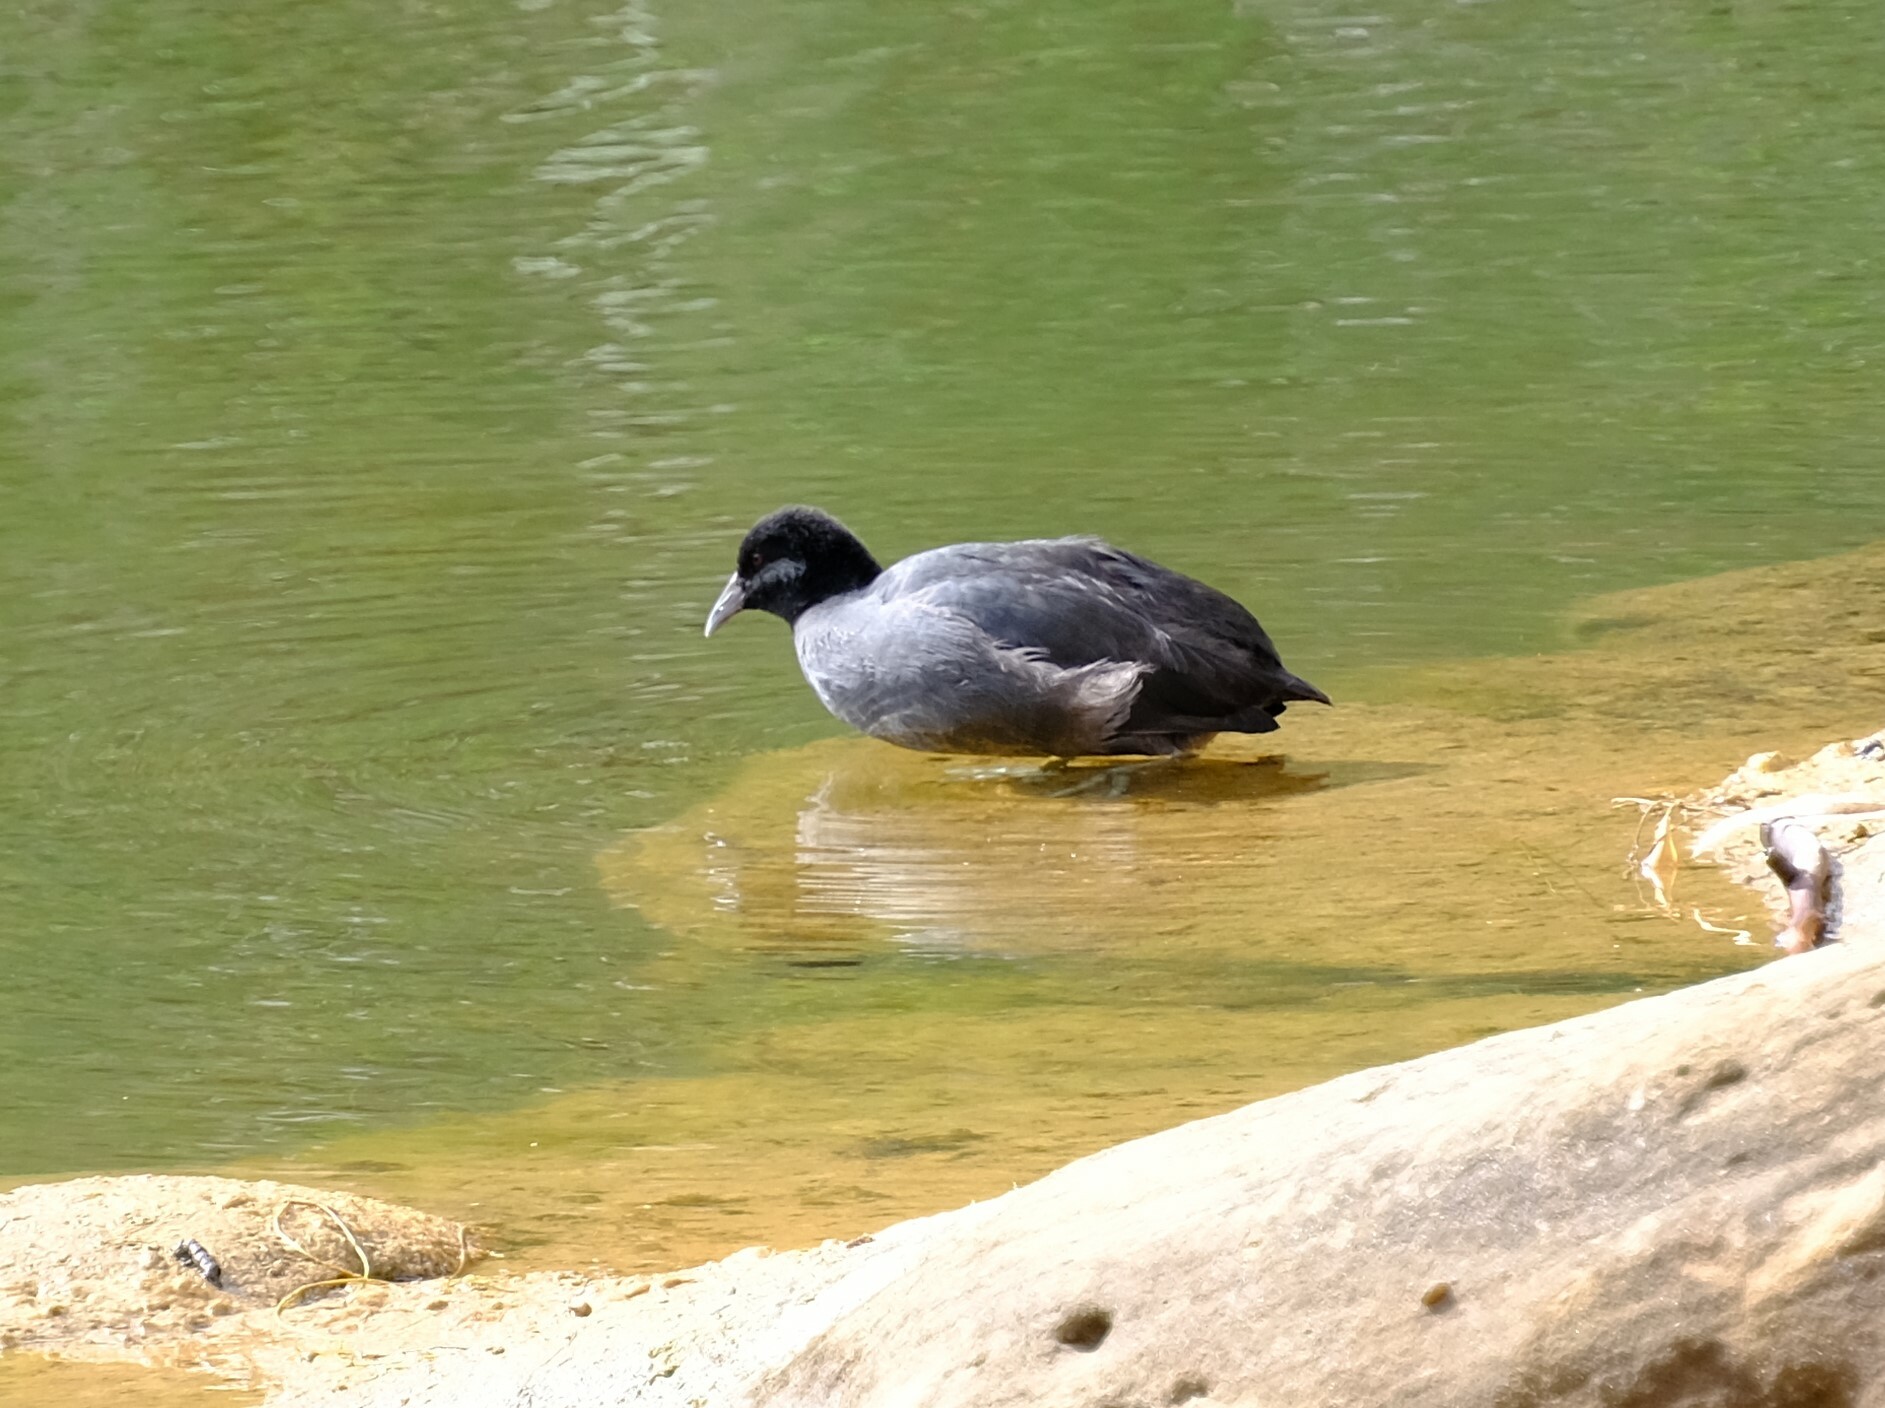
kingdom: Animalia
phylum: Chordata
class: Aves
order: Gruiformes
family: Rallidae
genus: Fulica
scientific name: Fulica atra
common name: Eurasian coot
